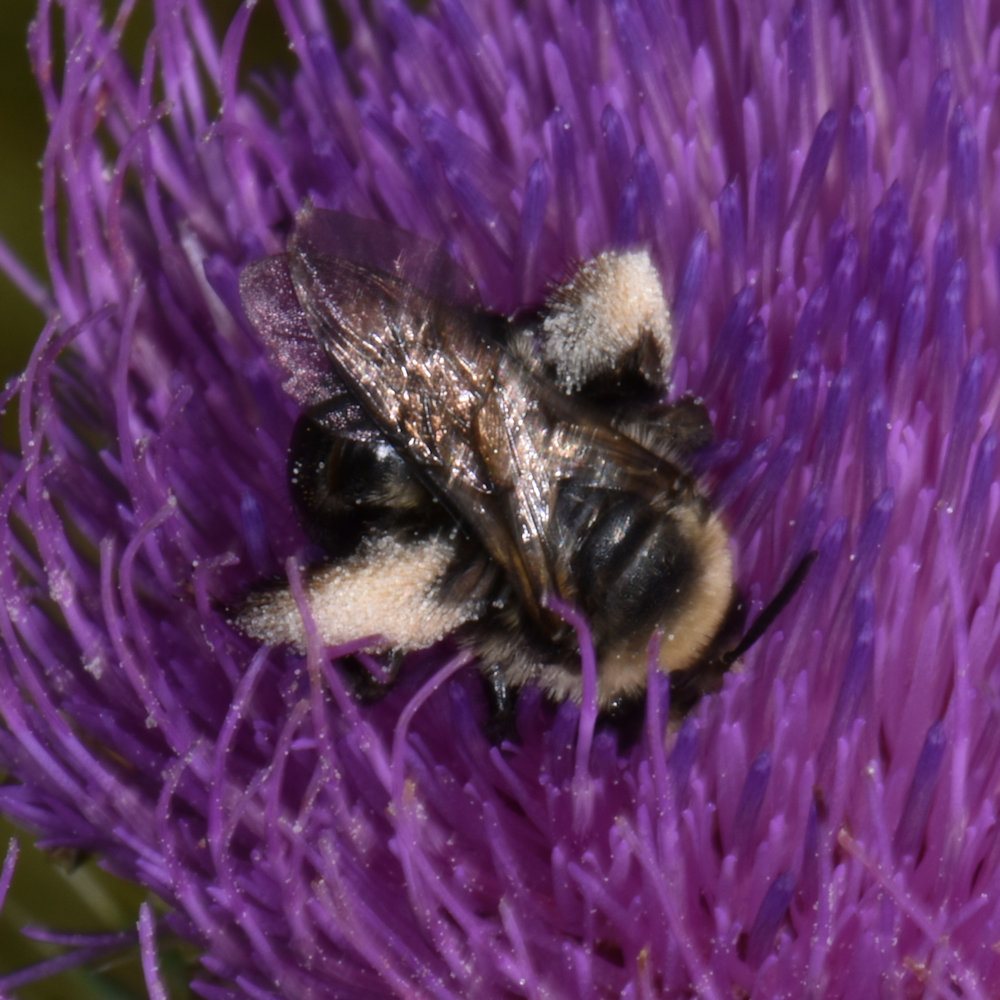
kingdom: Animalia
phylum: Arthropoda
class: Insecta
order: Hymenoptera
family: Apidae
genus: Melissodes
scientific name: Melissodes desponsus
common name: Thistle long-horned bee
